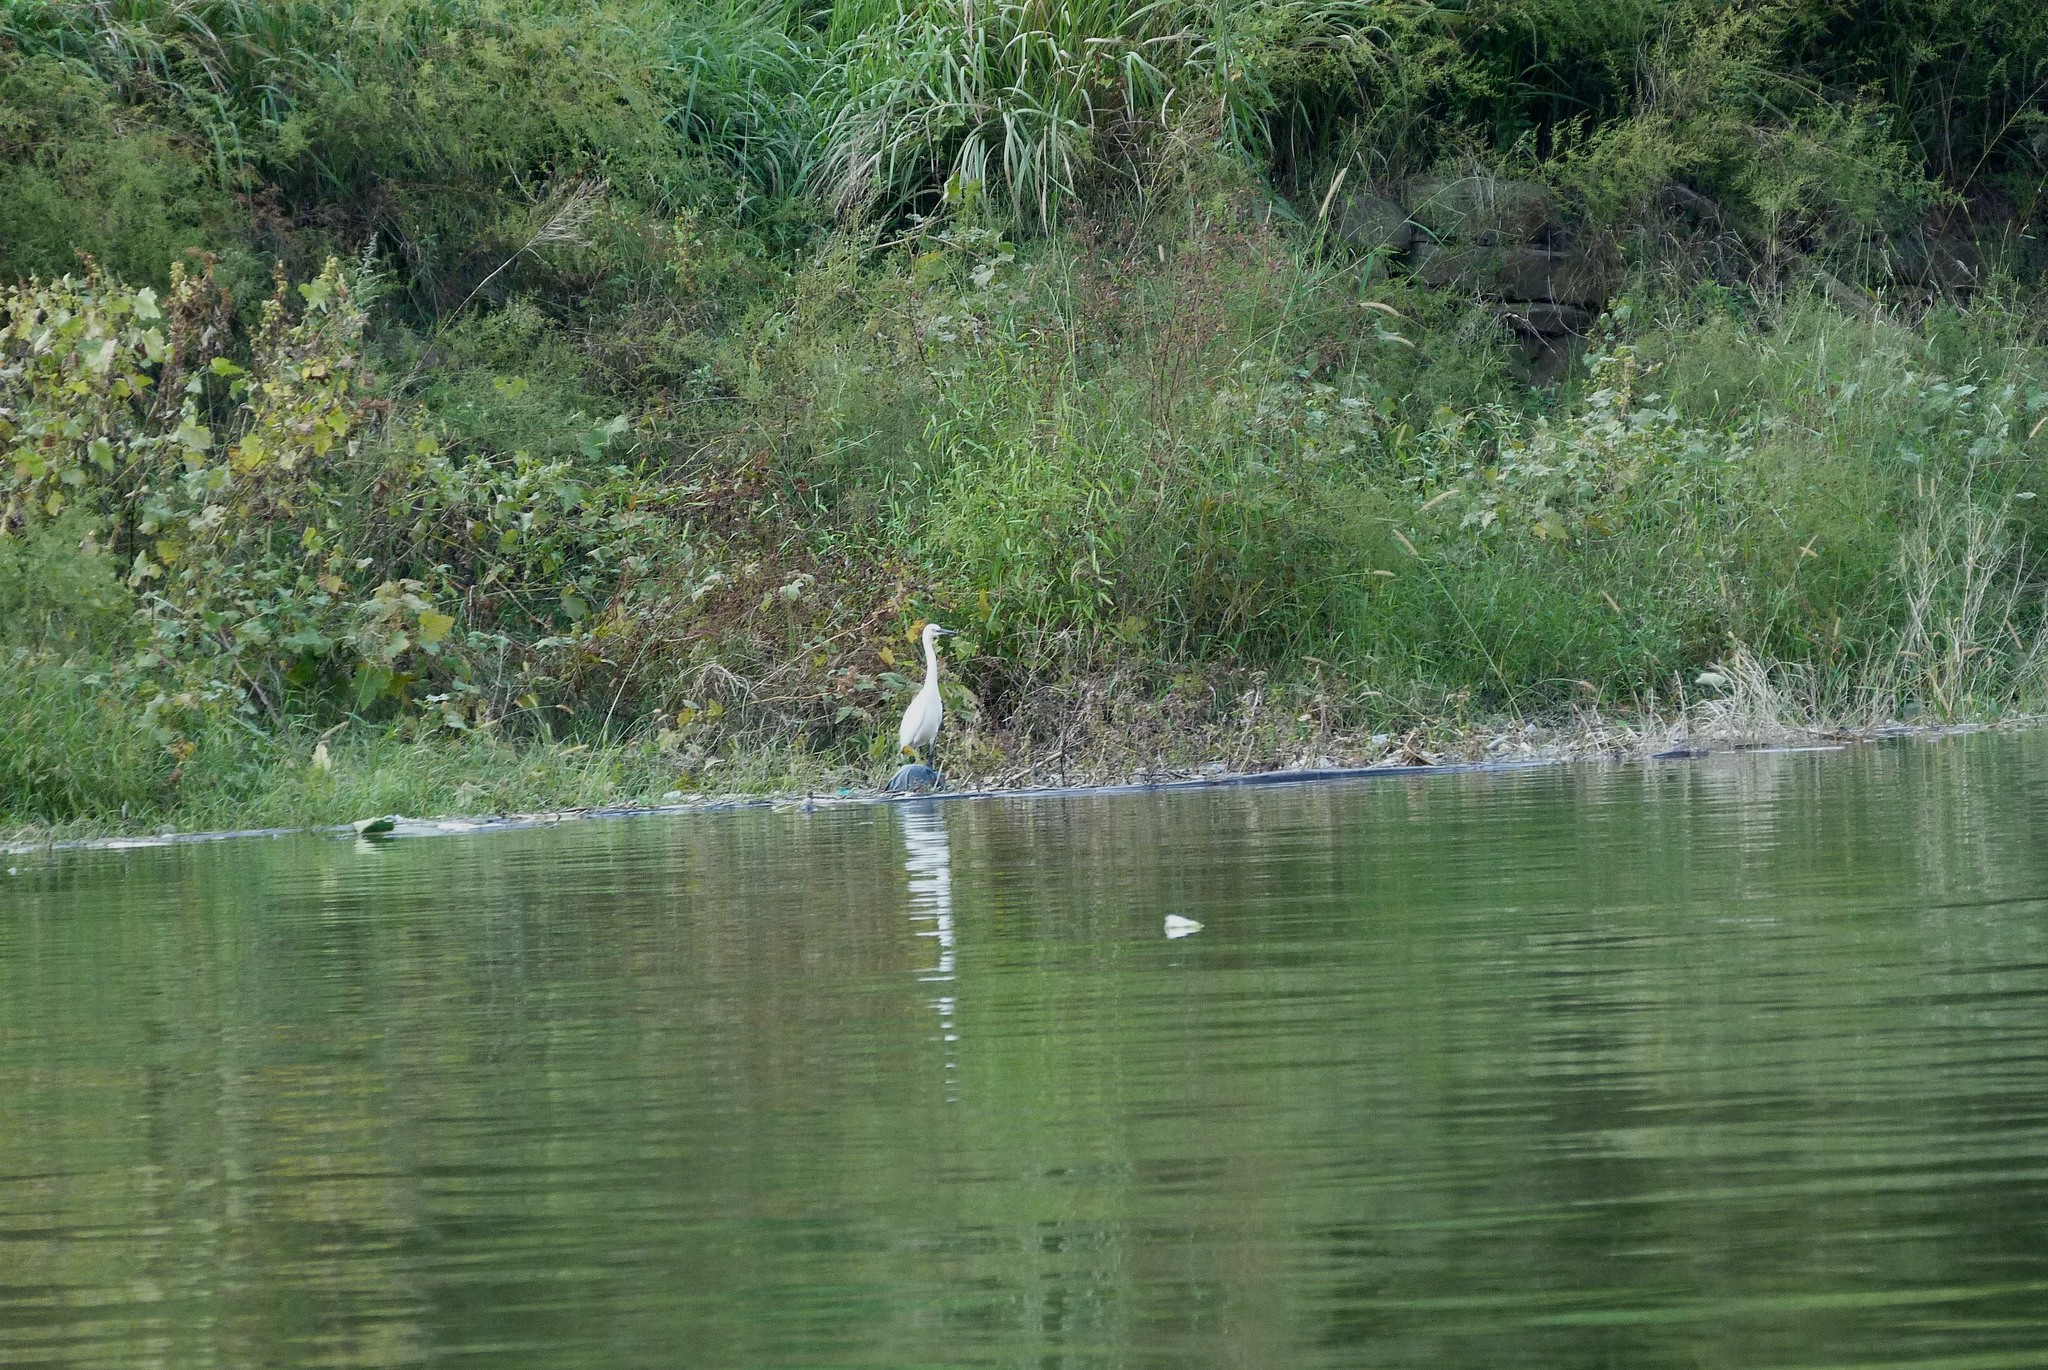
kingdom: Animalia
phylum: Chordata
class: Aves
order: Pelecaniformes
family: Ardeidae
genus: Egretta
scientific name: Egretta garzetta
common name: Little egret
